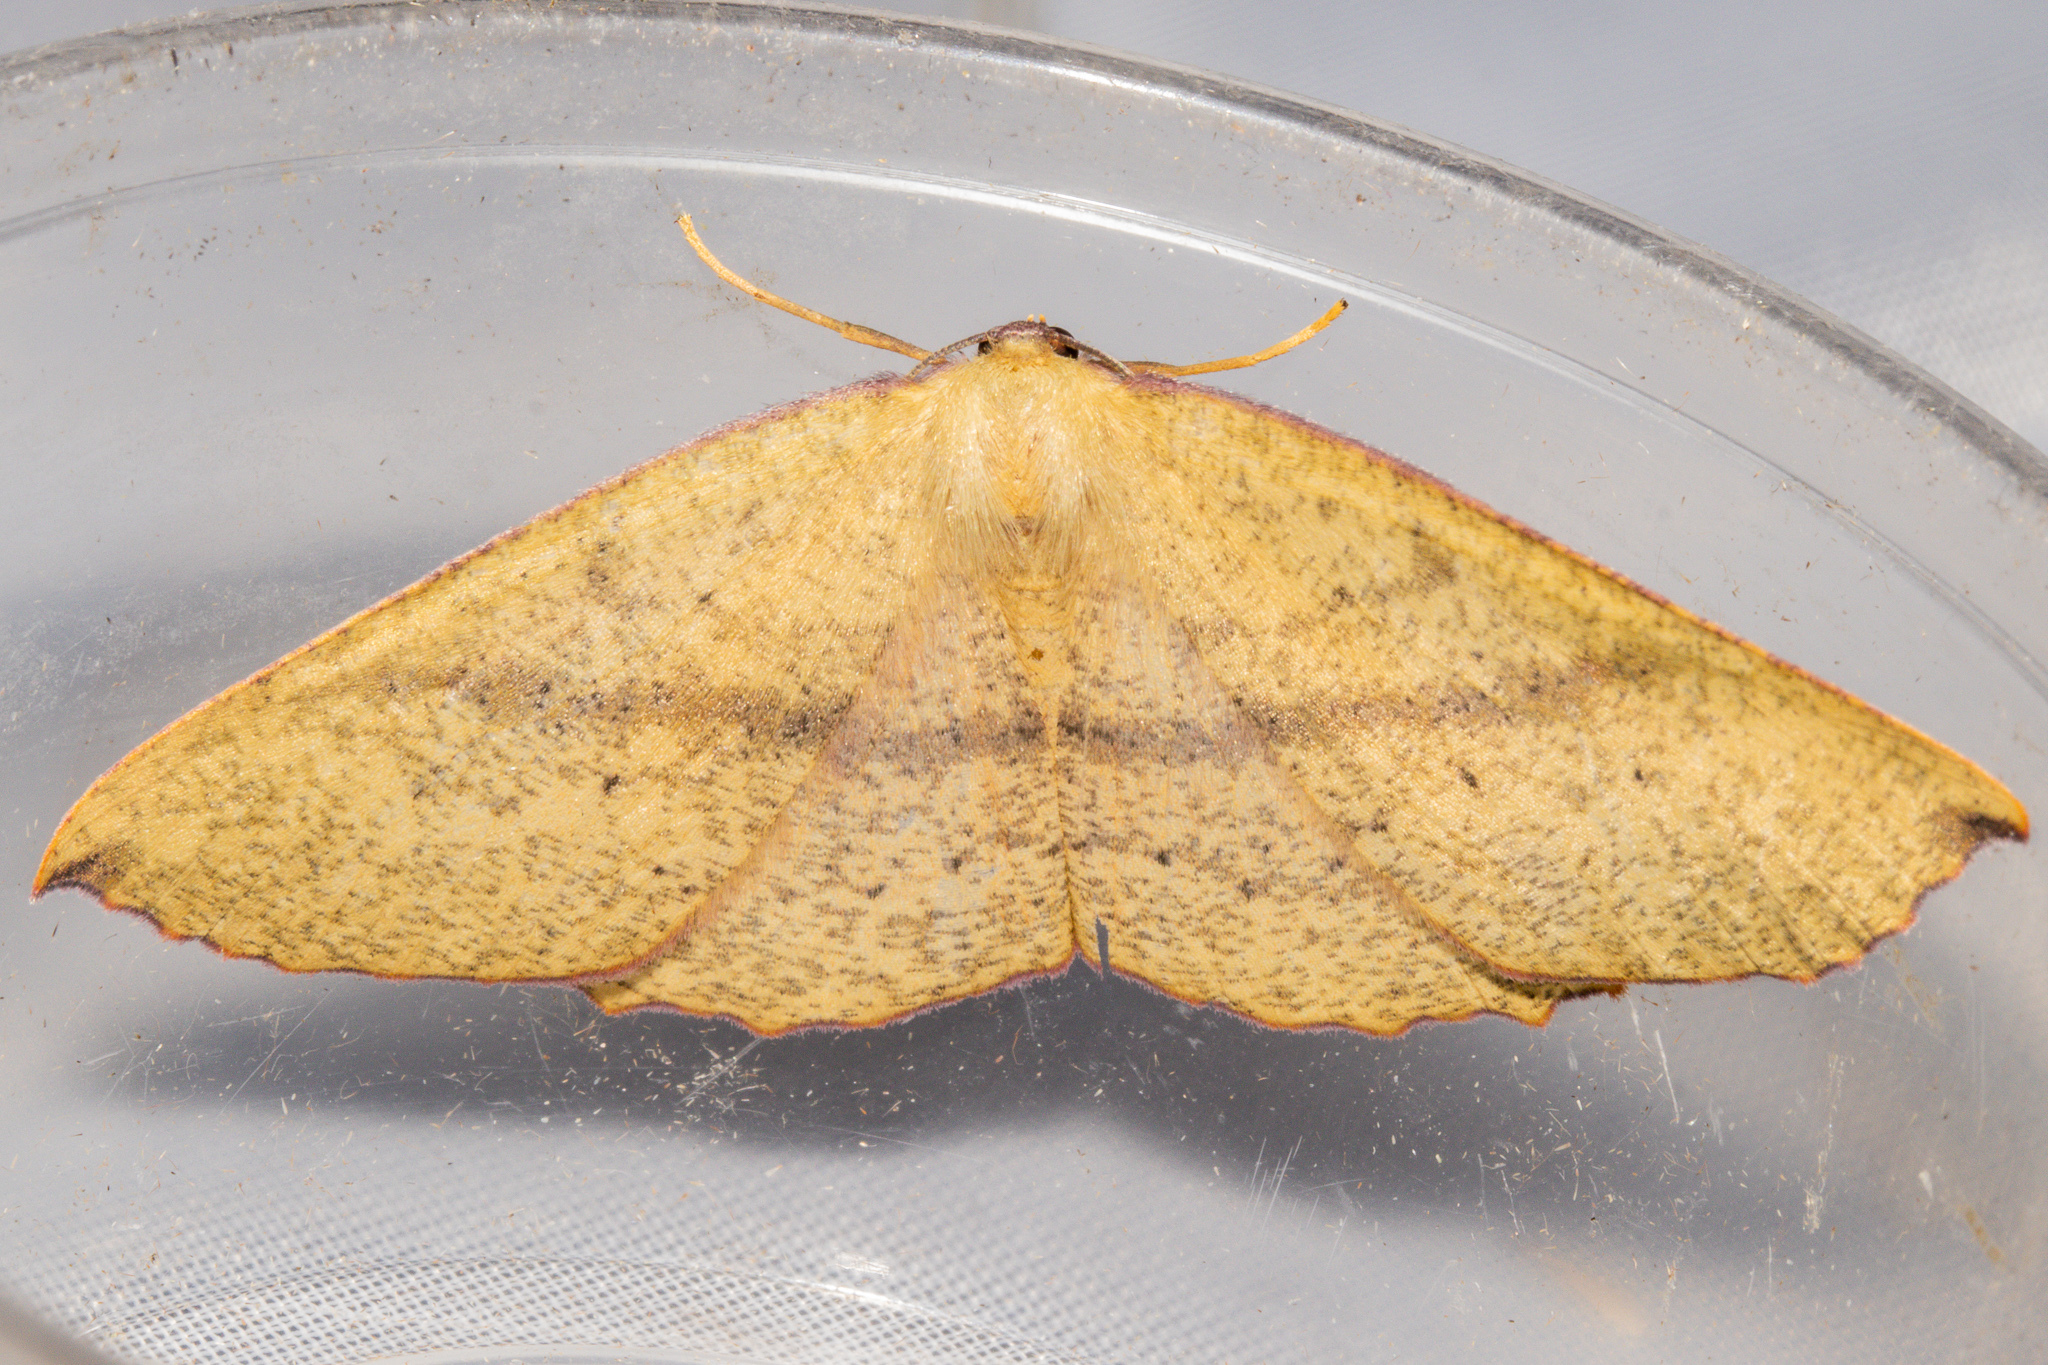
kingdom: Animalia
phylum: Arthropoda
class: Insecta
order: Lepidoptera
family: Geometridae
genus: Xyridacma
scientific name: Xyridacma alectoraria
